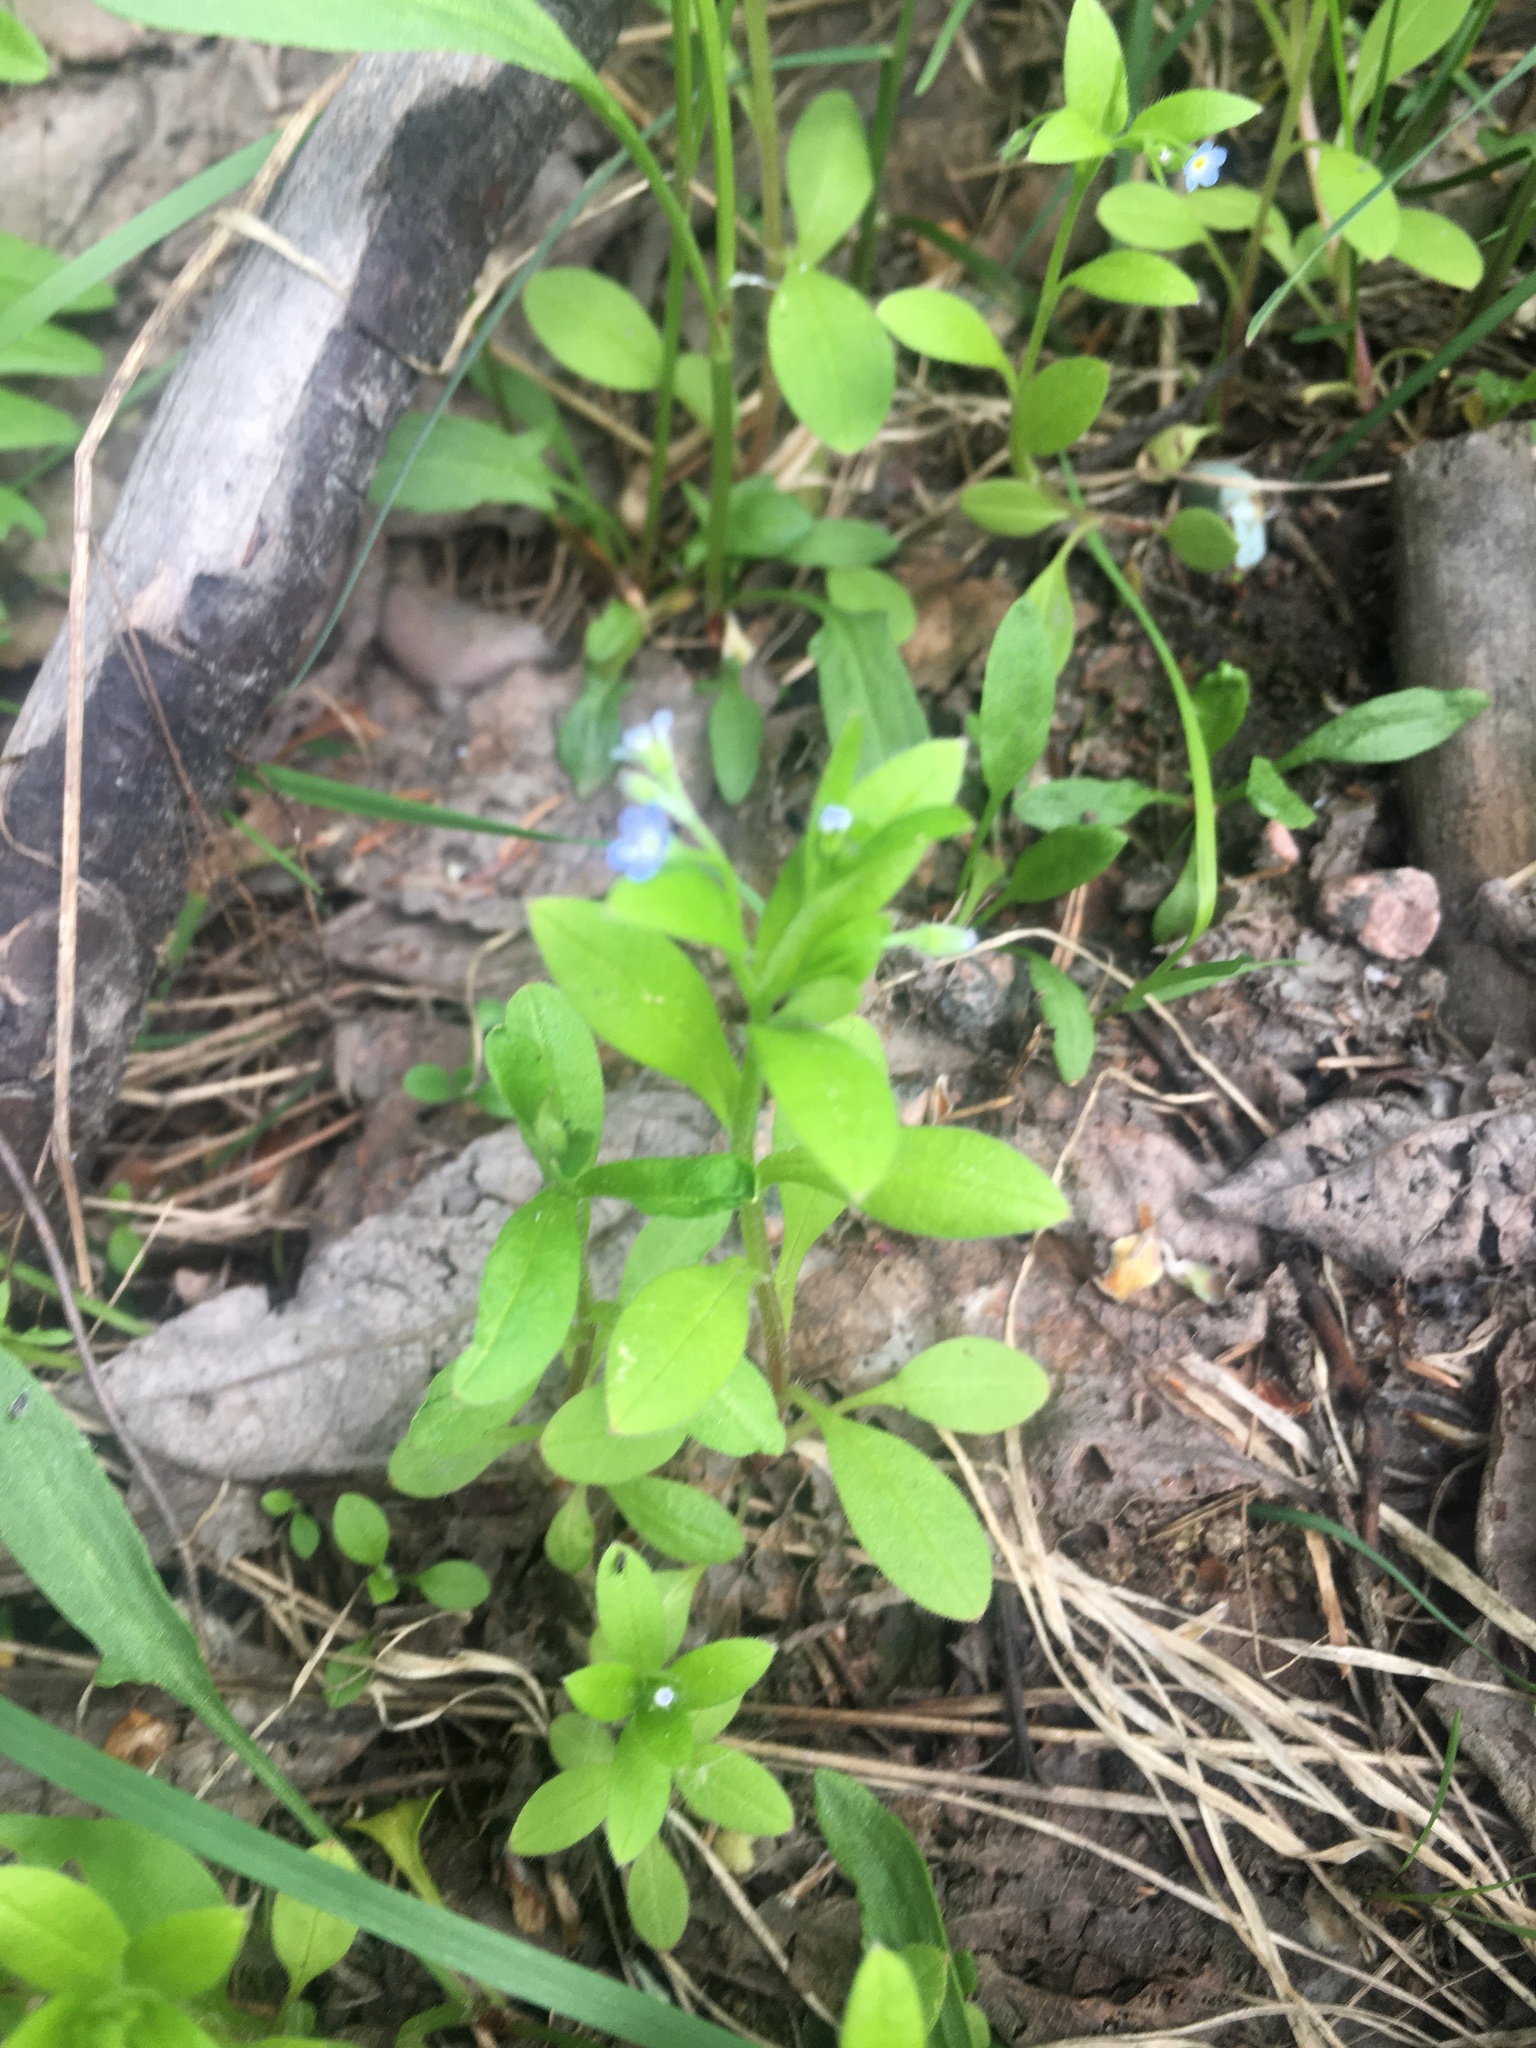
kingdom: Plantae
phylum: Tracheophyta
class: Magnoliopsida
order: Boraginales
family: Boraginaceae
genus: Myosotis
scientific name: Myosotis sparsiflora
